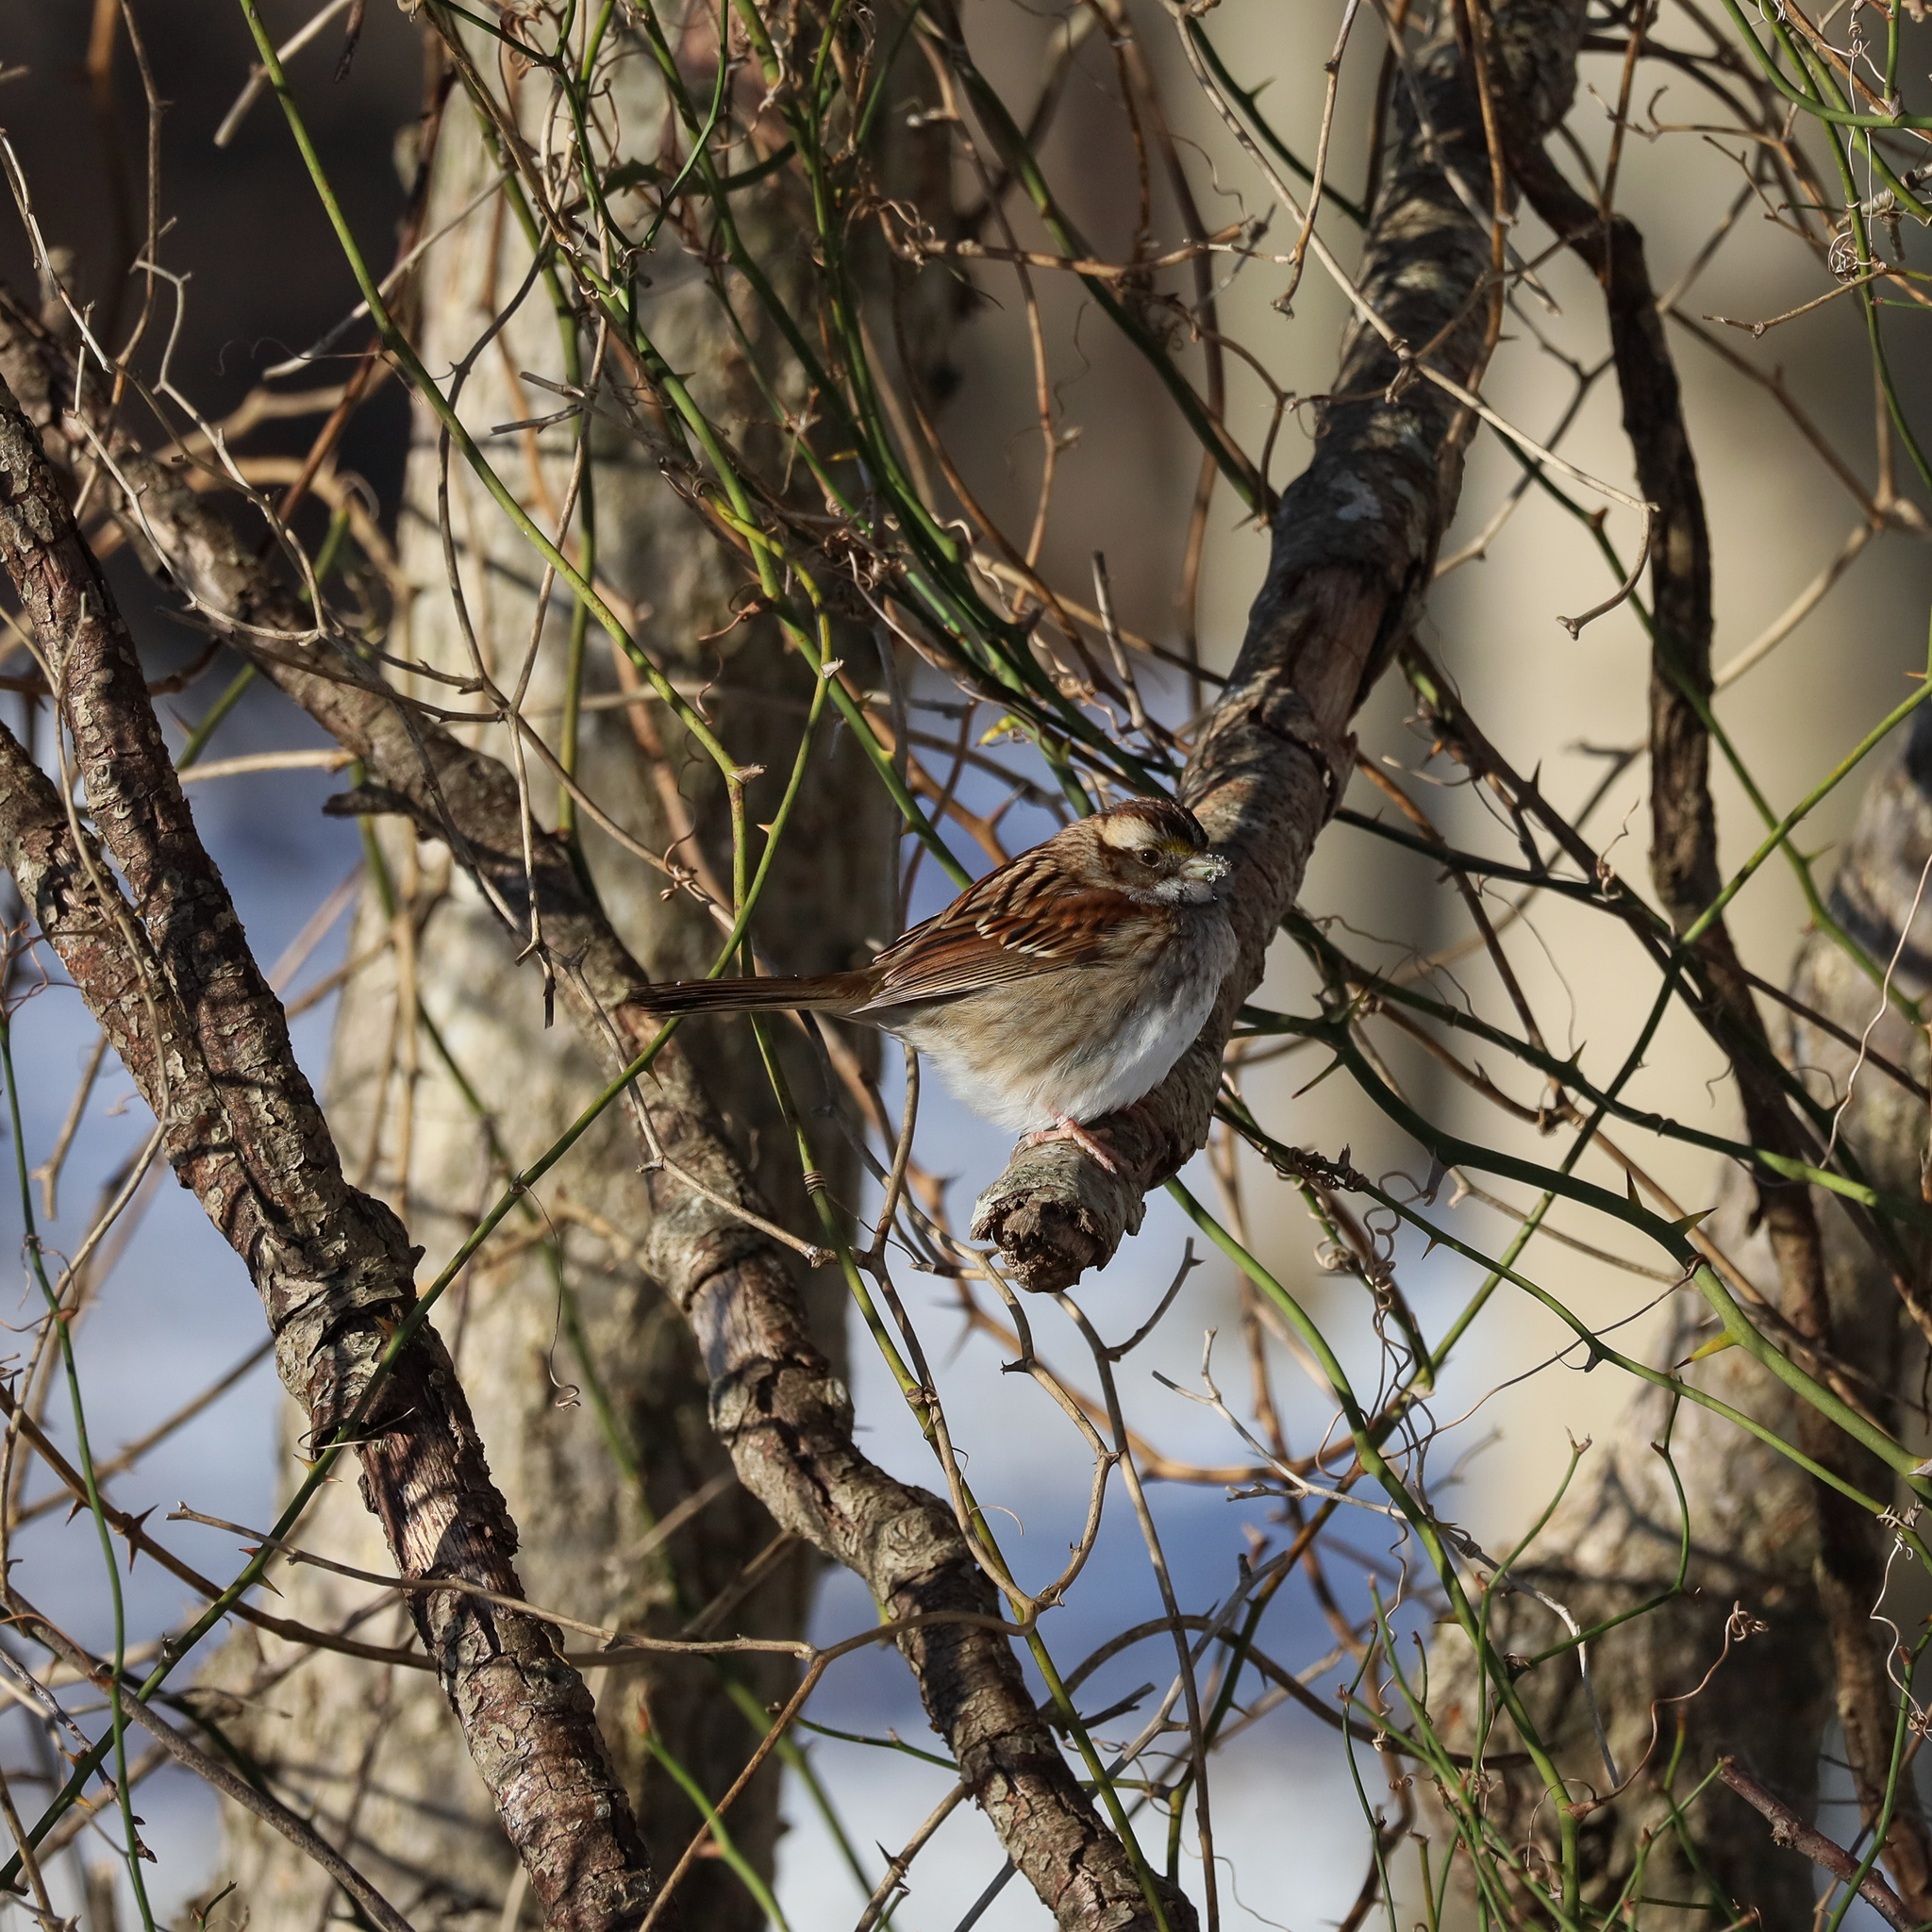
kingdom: Animalia
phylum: Chordata
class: Aves
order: Passeriformes
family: Passerellidae
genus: Zonotrichia
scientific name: Zonotrichia albicollis
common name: White-throated sparrow
